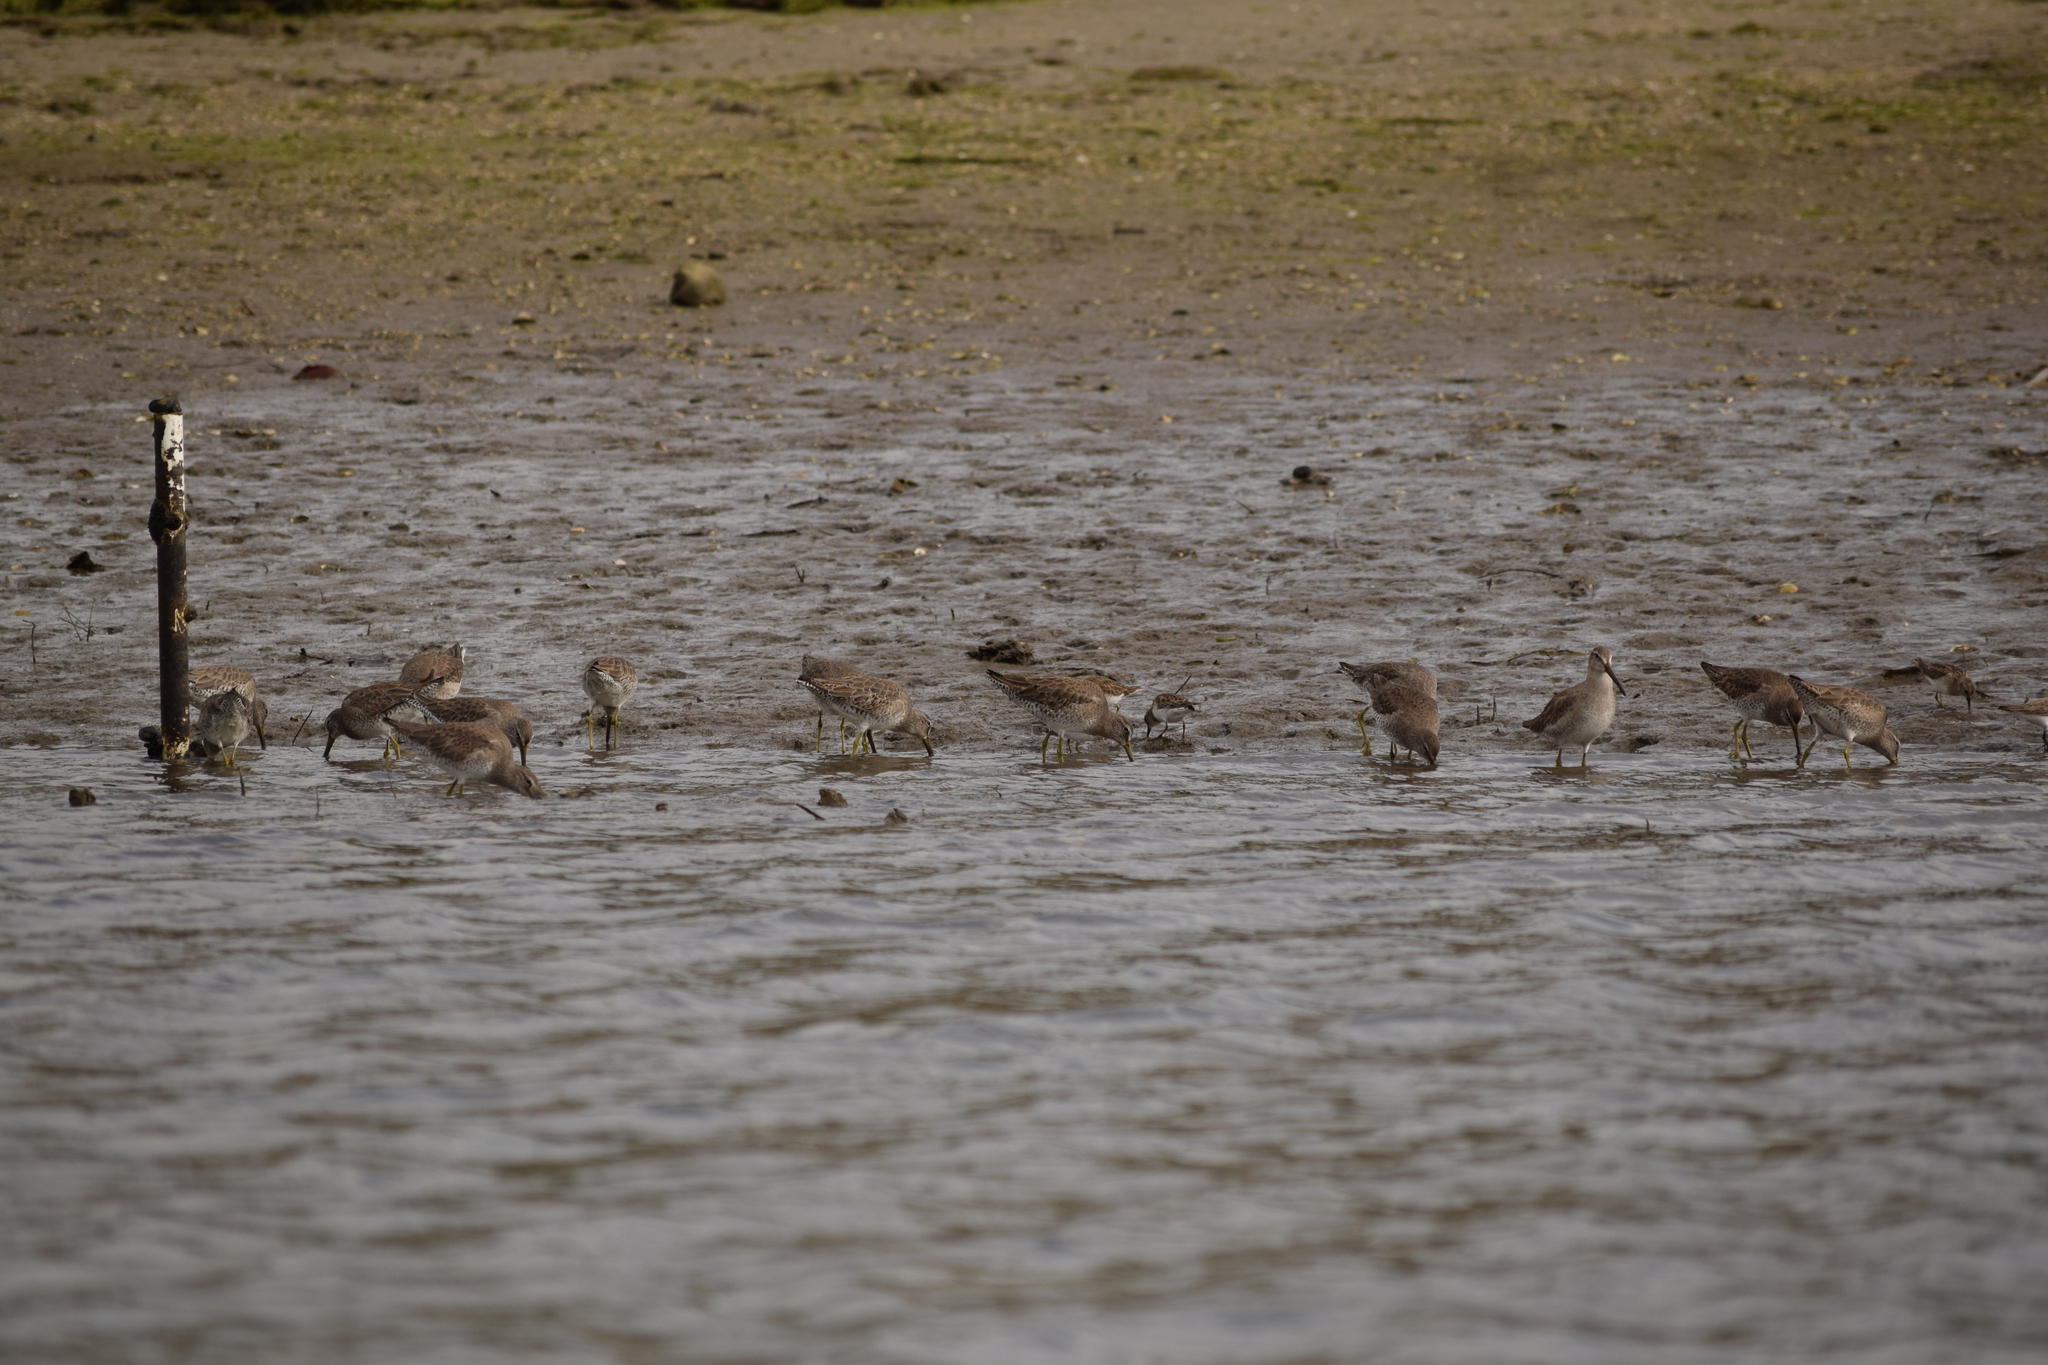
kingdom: Animalia
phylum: Chordata
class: Aves
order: Charadriiformes
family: Scolopacidae
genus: Limnodromus
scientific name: Limnodromus
